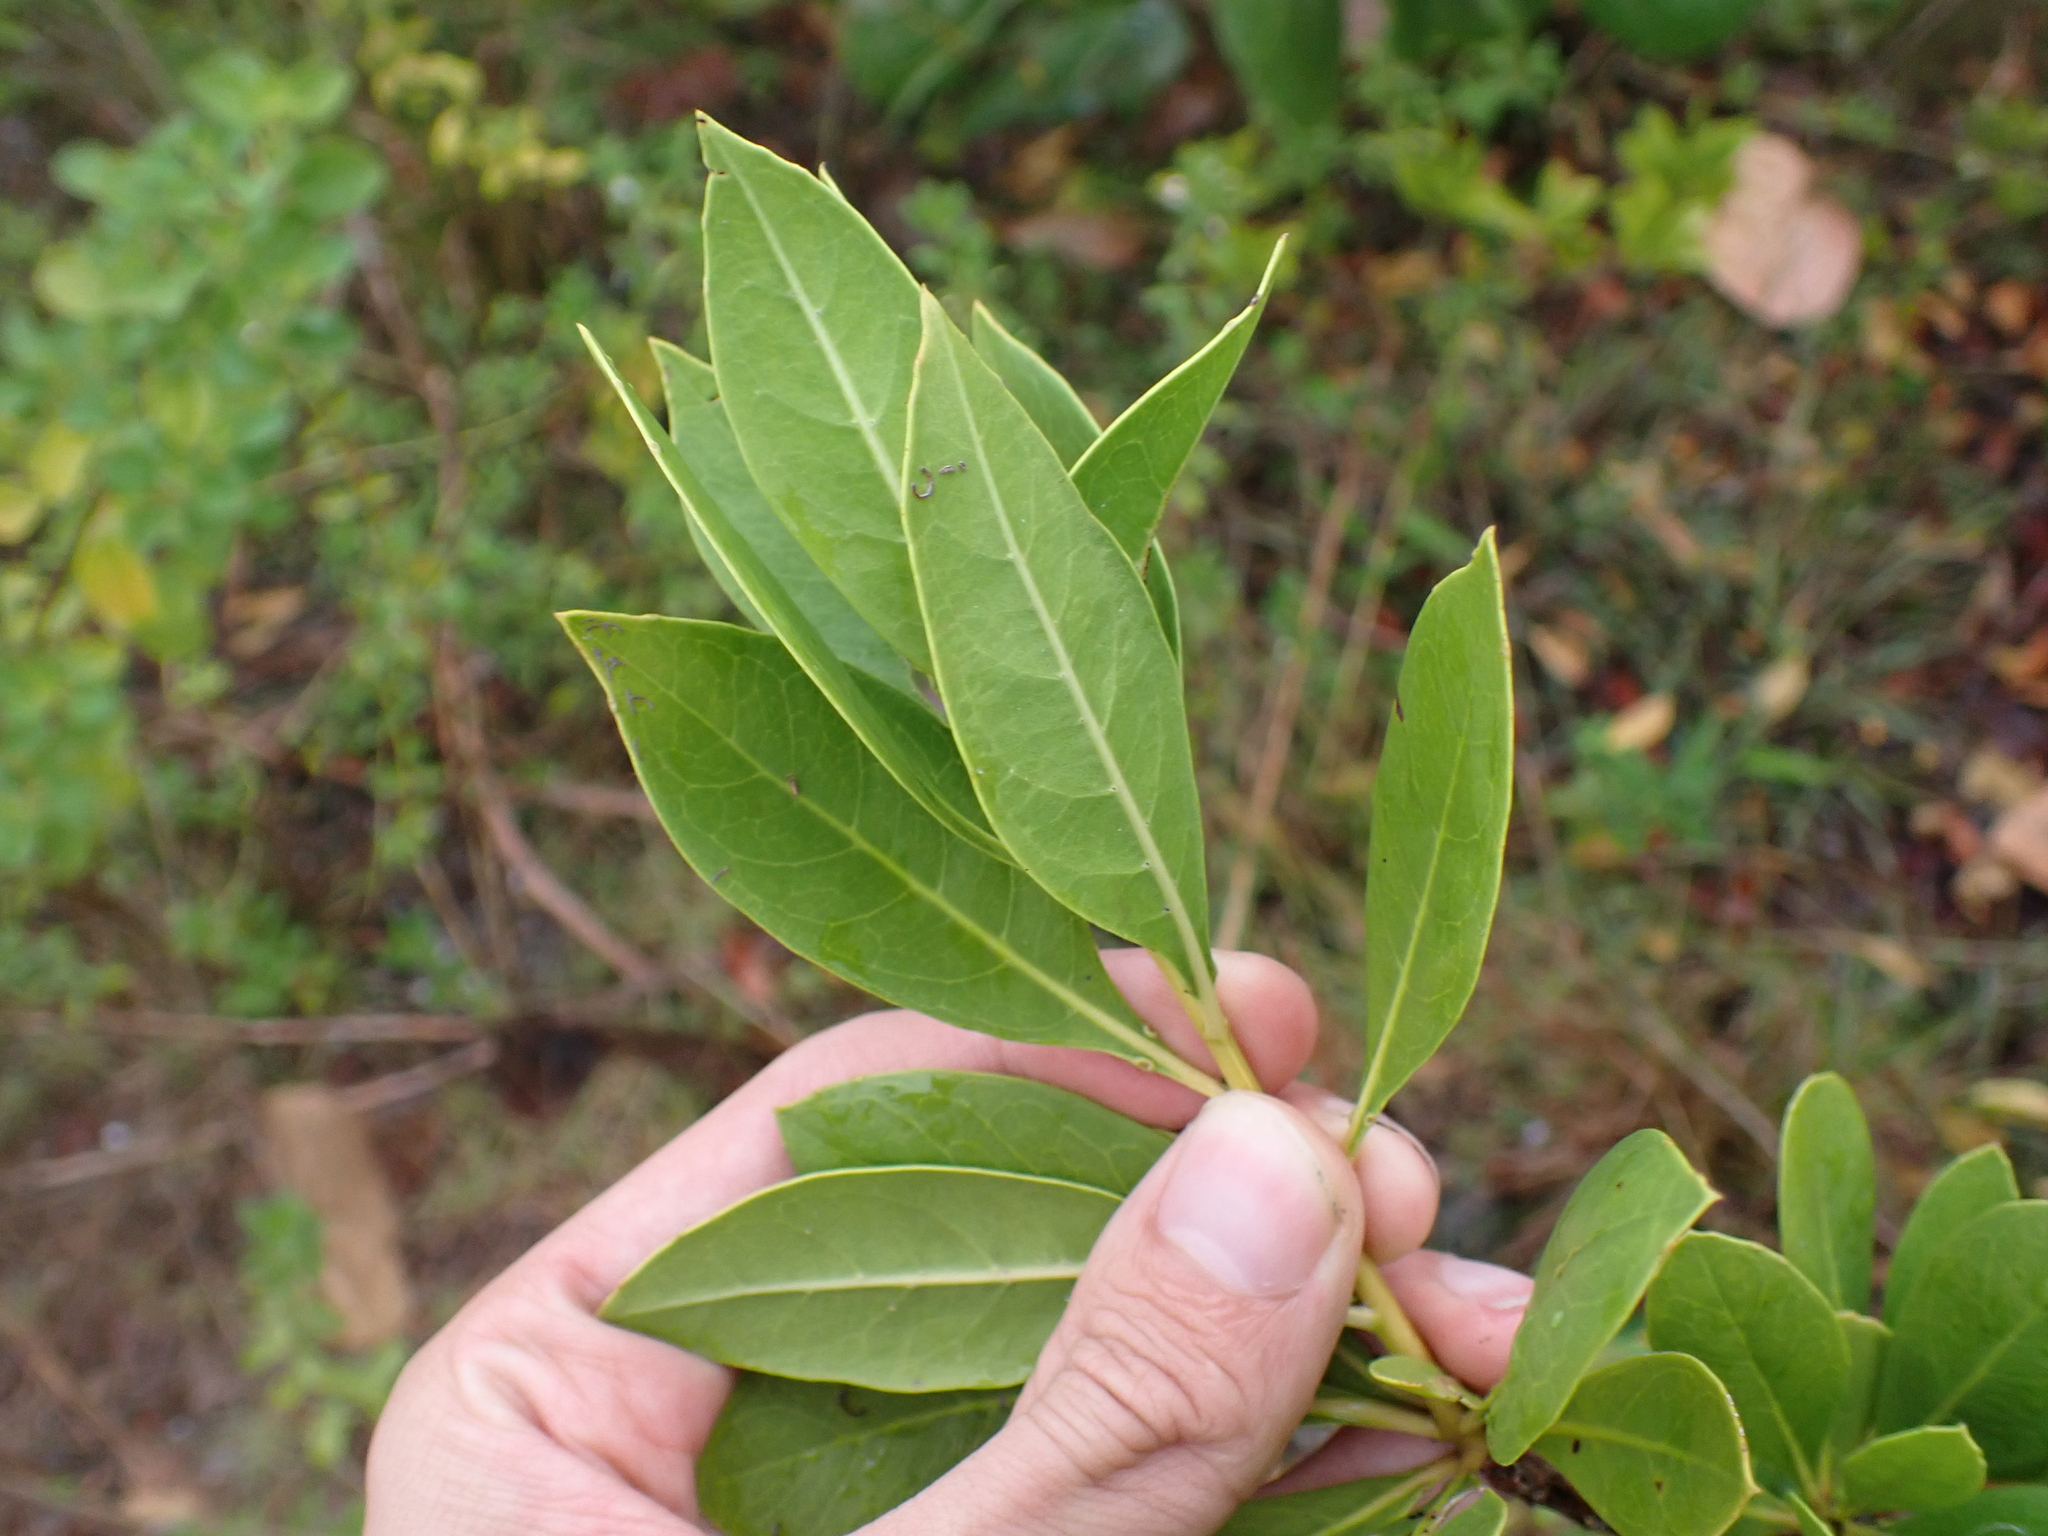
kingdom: Plantae
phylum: Tracheophyta
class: Magnoliopsida
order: Myrtales
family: Combretaceae
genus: Conocarpus
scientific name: Conocarpus erectus
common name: Button mangrove
